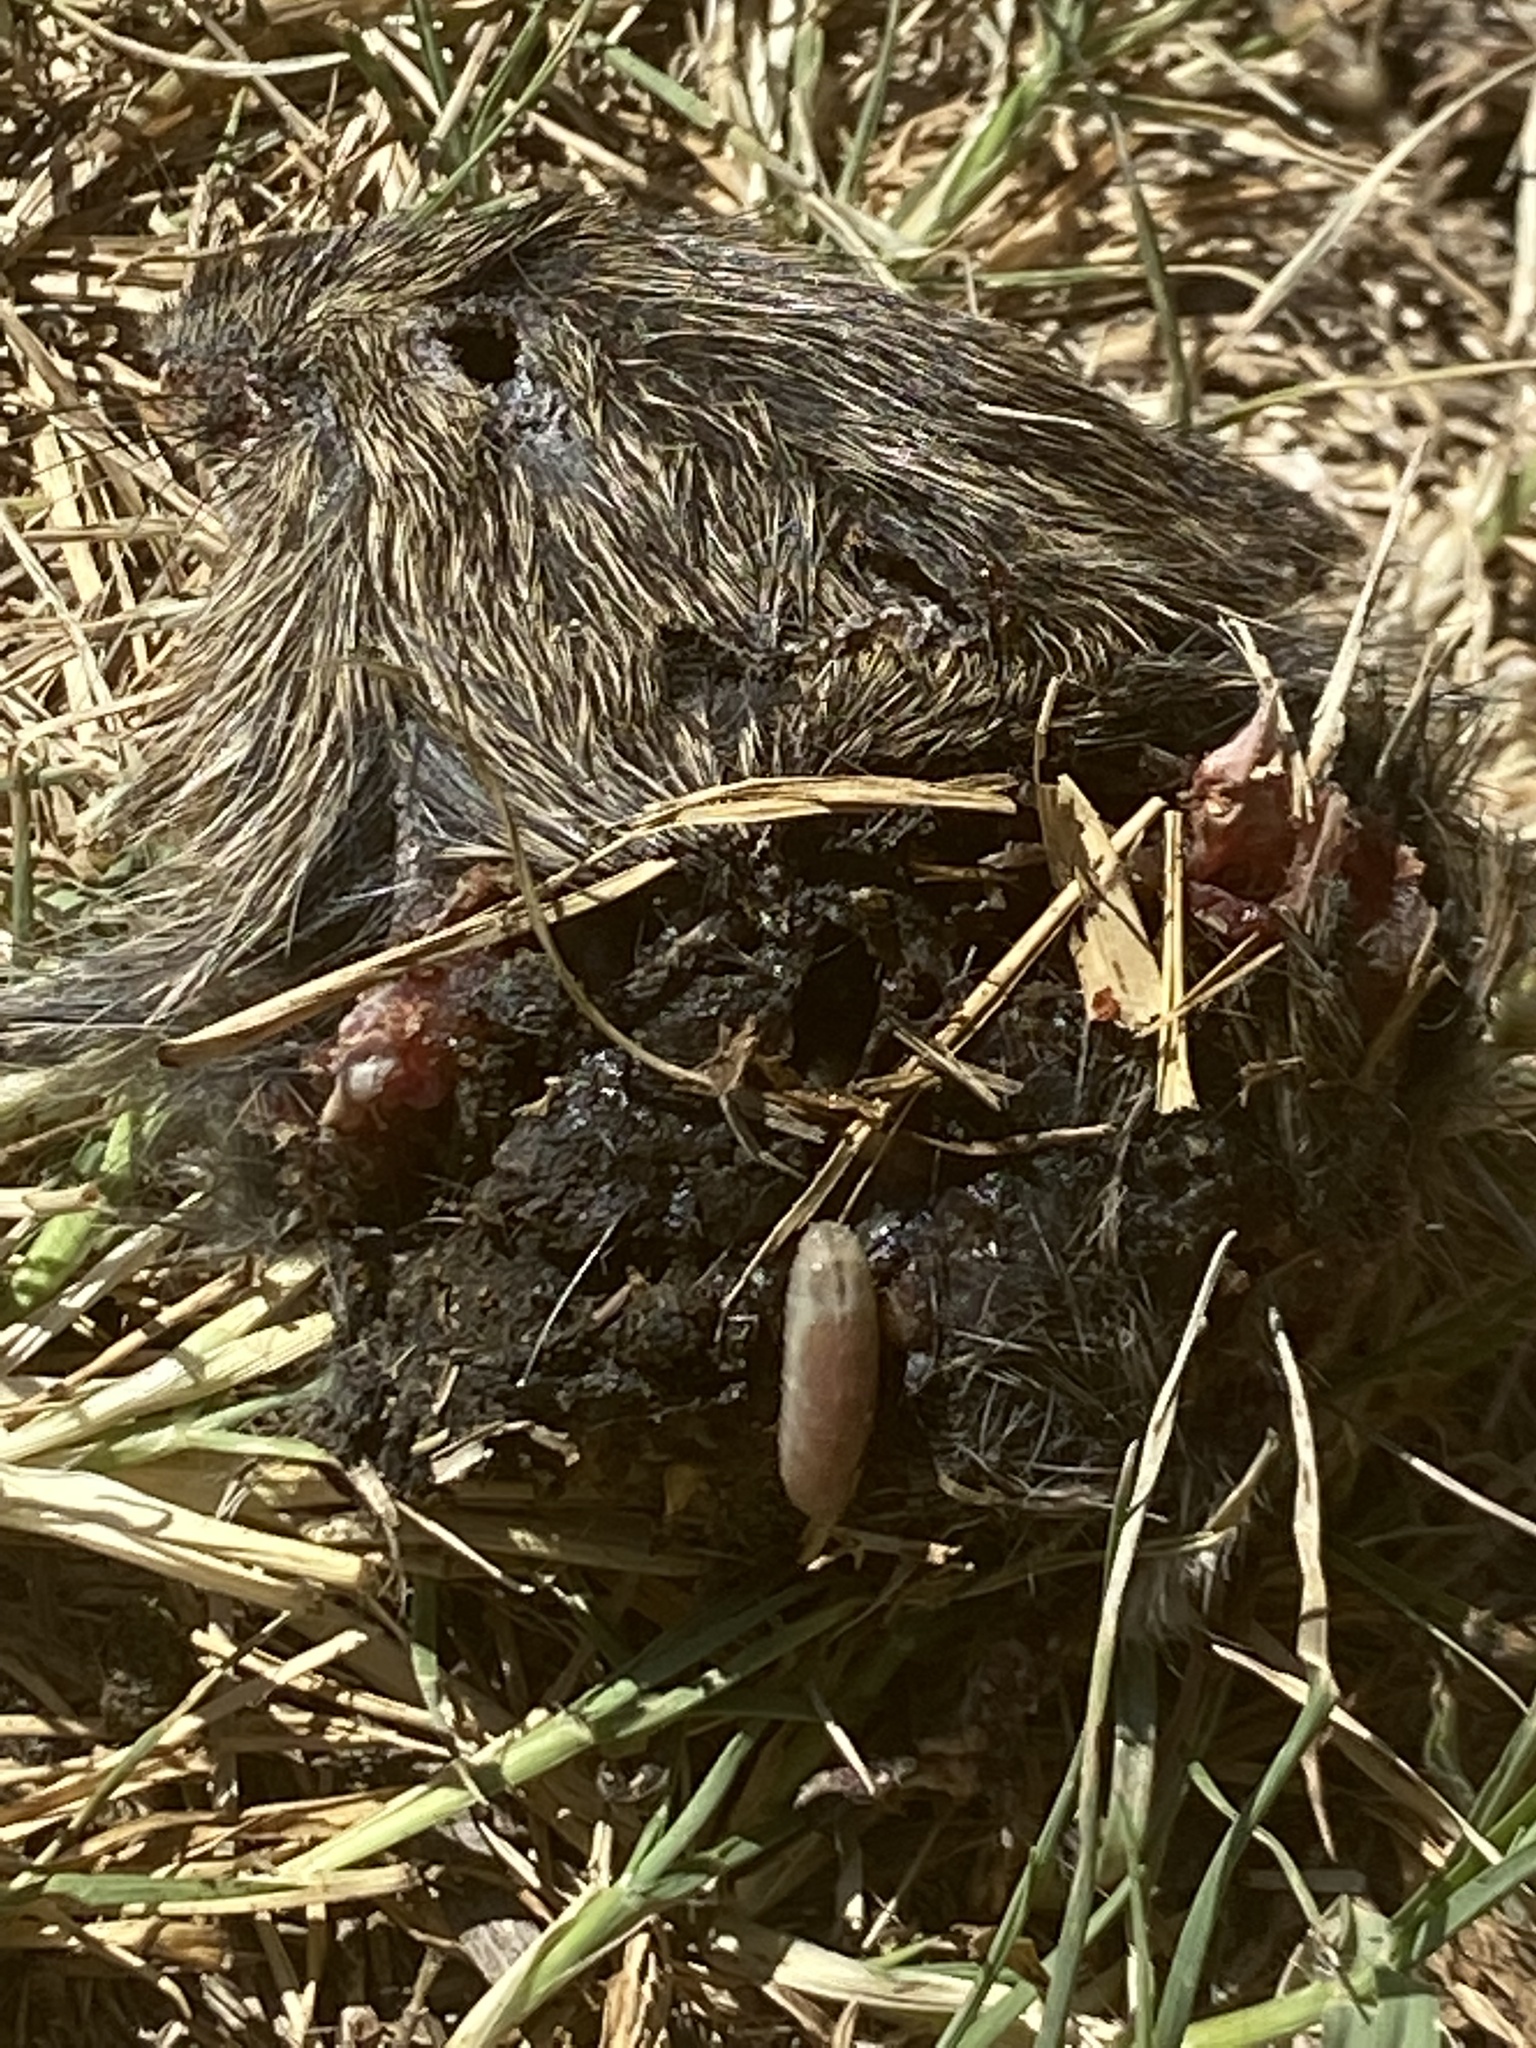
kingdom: Animalia
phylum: Chordata
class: Mammalia
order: Rodentia
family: Cricetidae
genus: Sigmodon
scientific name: Sigmodon hispidus
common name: Hispid cotton rat
